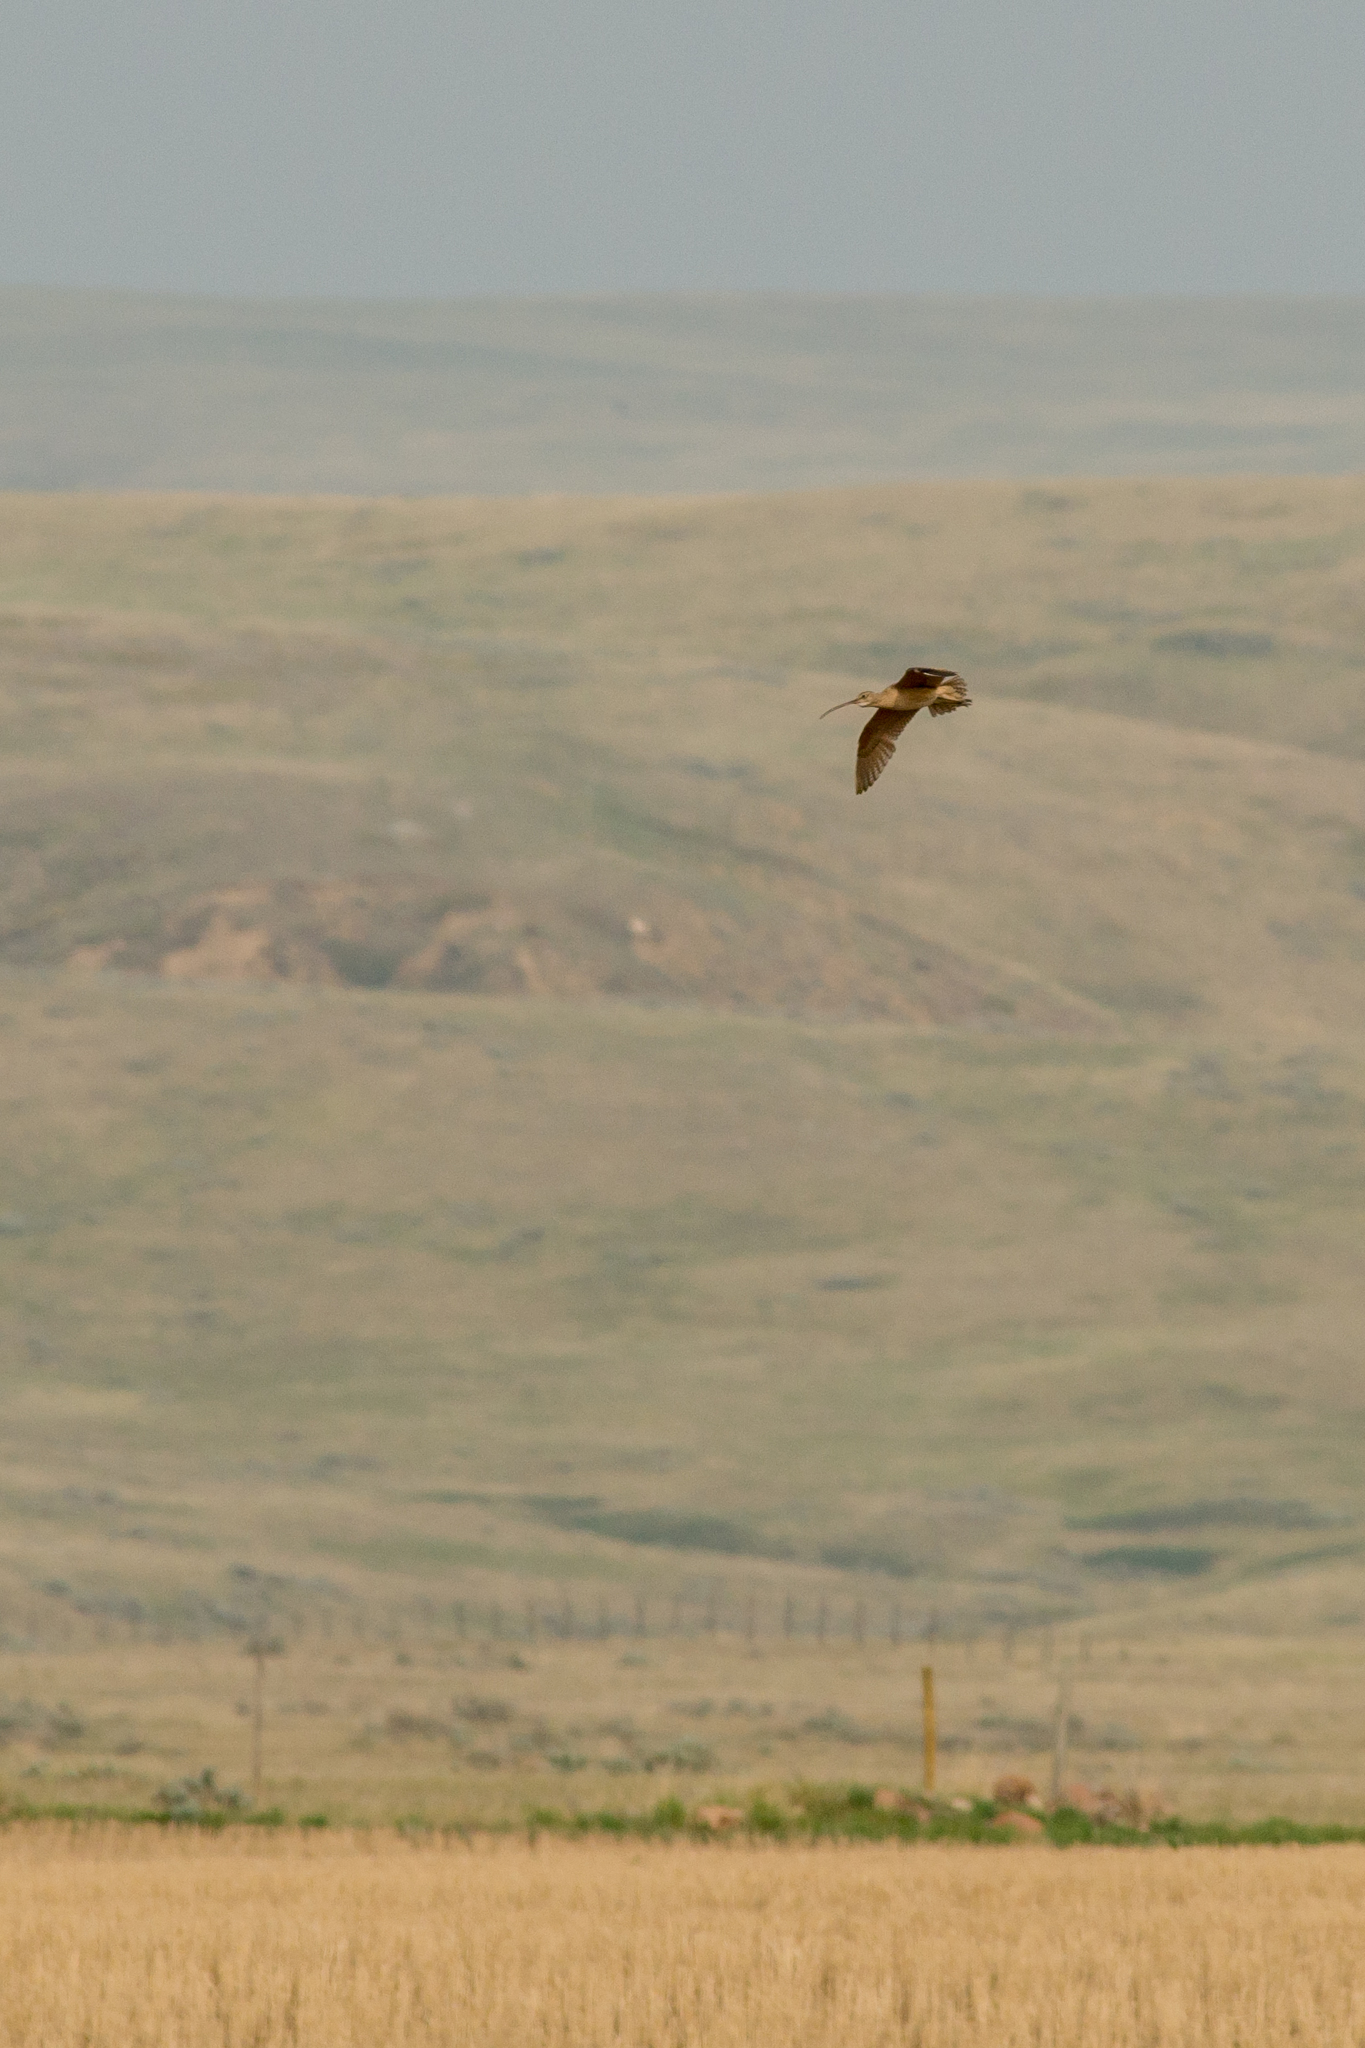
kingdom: Animalia
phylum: Chordata
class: Aves
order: Charadriiformes
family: Scolopacidae
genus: Numenius
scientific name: Numenius americanus
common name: Long-billed curlew
